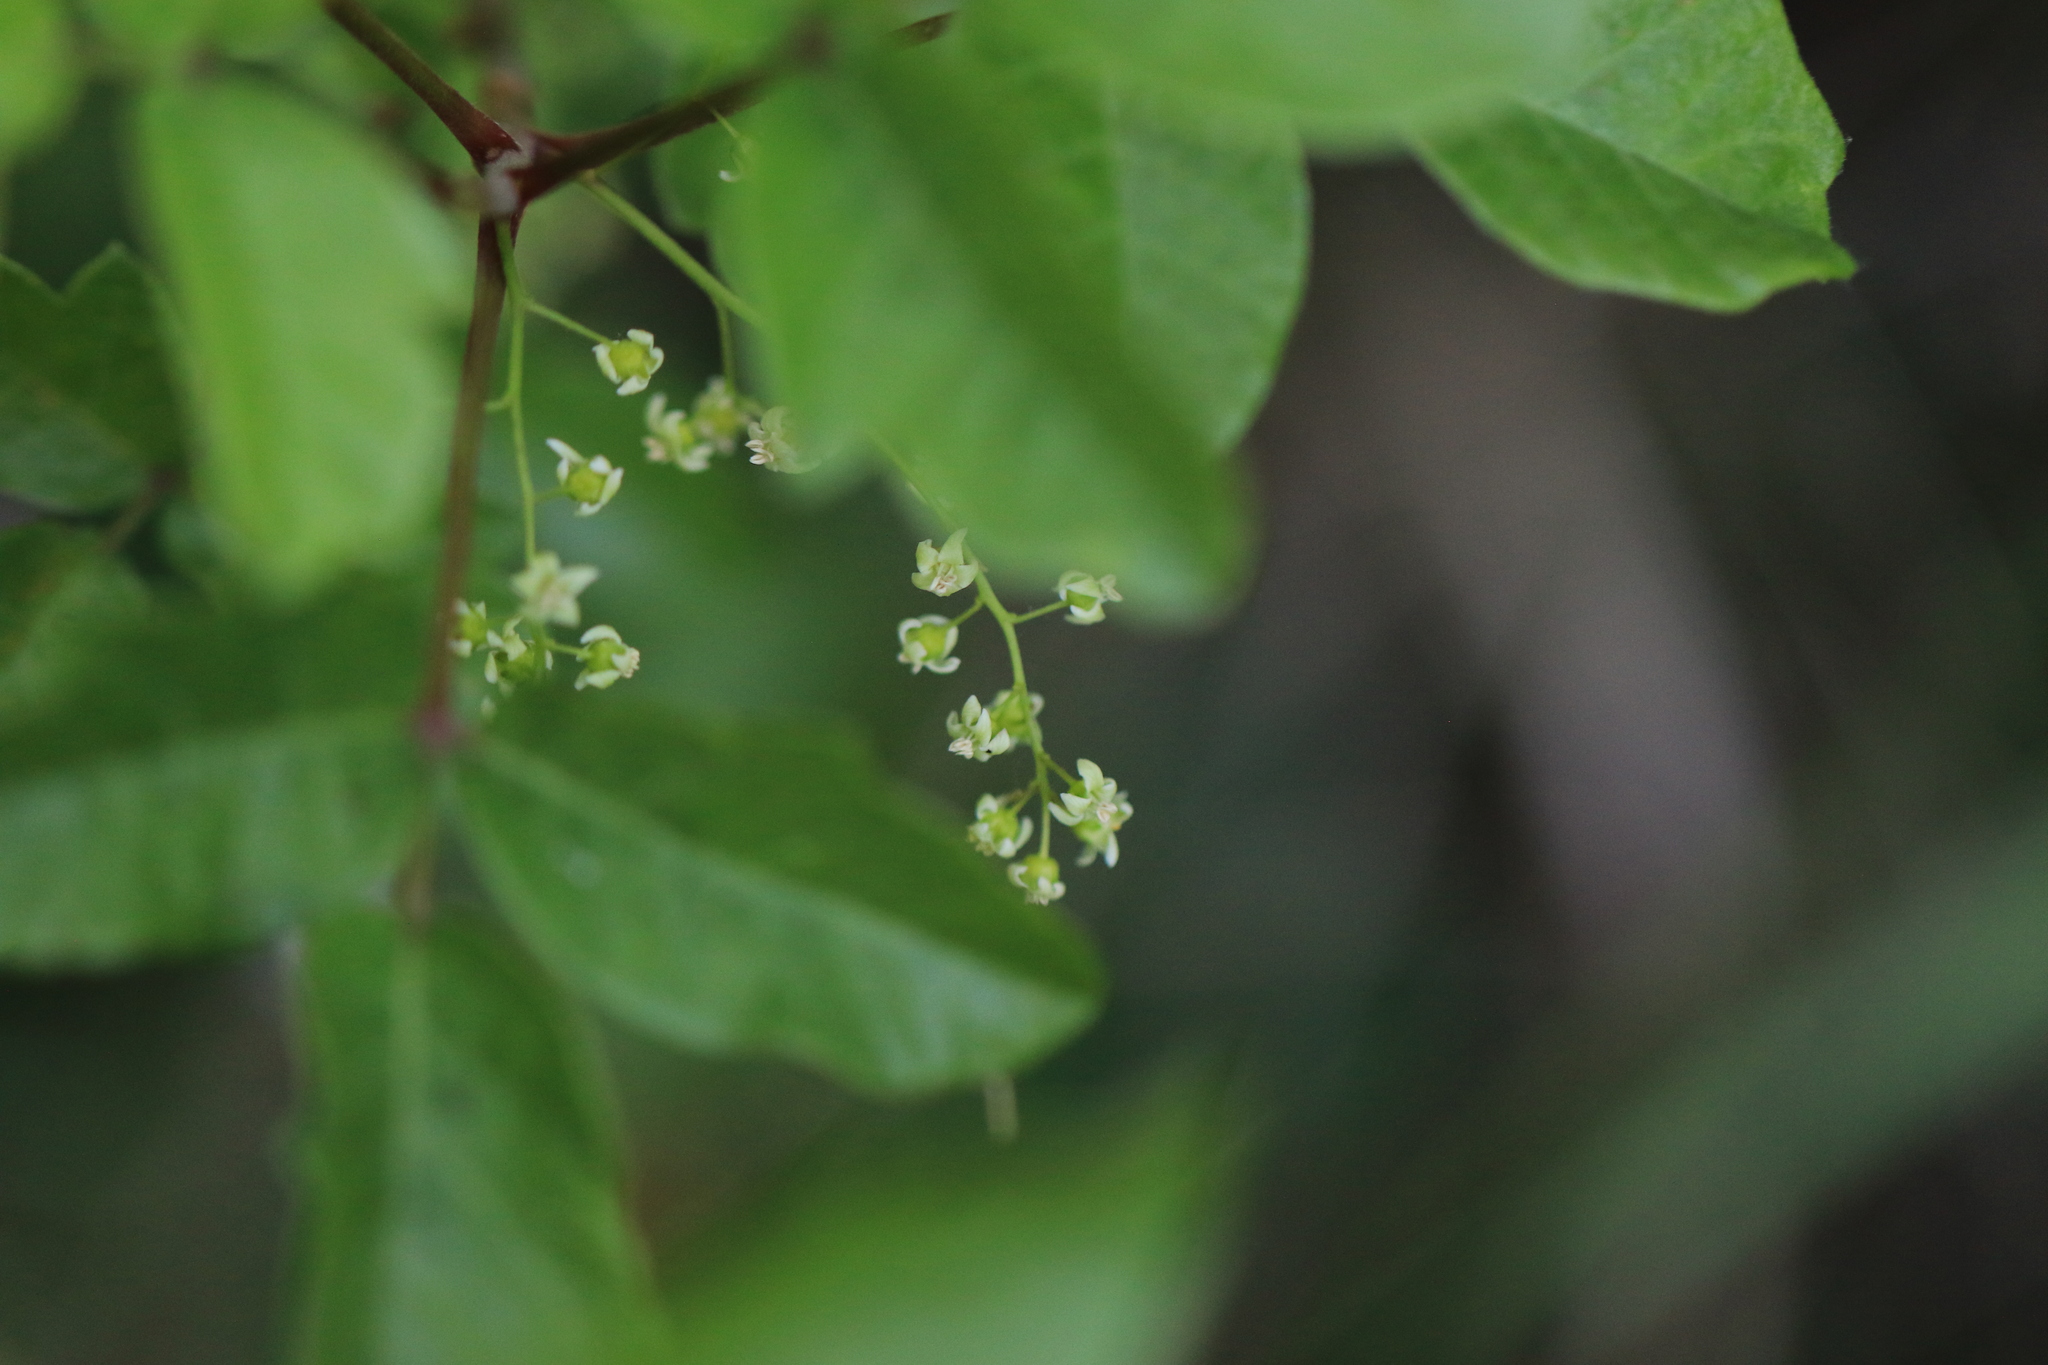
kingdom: Plantae
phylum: Tracheophyta
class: Magnoliopsida
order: Sapindales
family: Anacardiaceae
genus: Toxicodendron
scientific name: Toxicodendron diversilobum
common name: Pacific poison-oak
